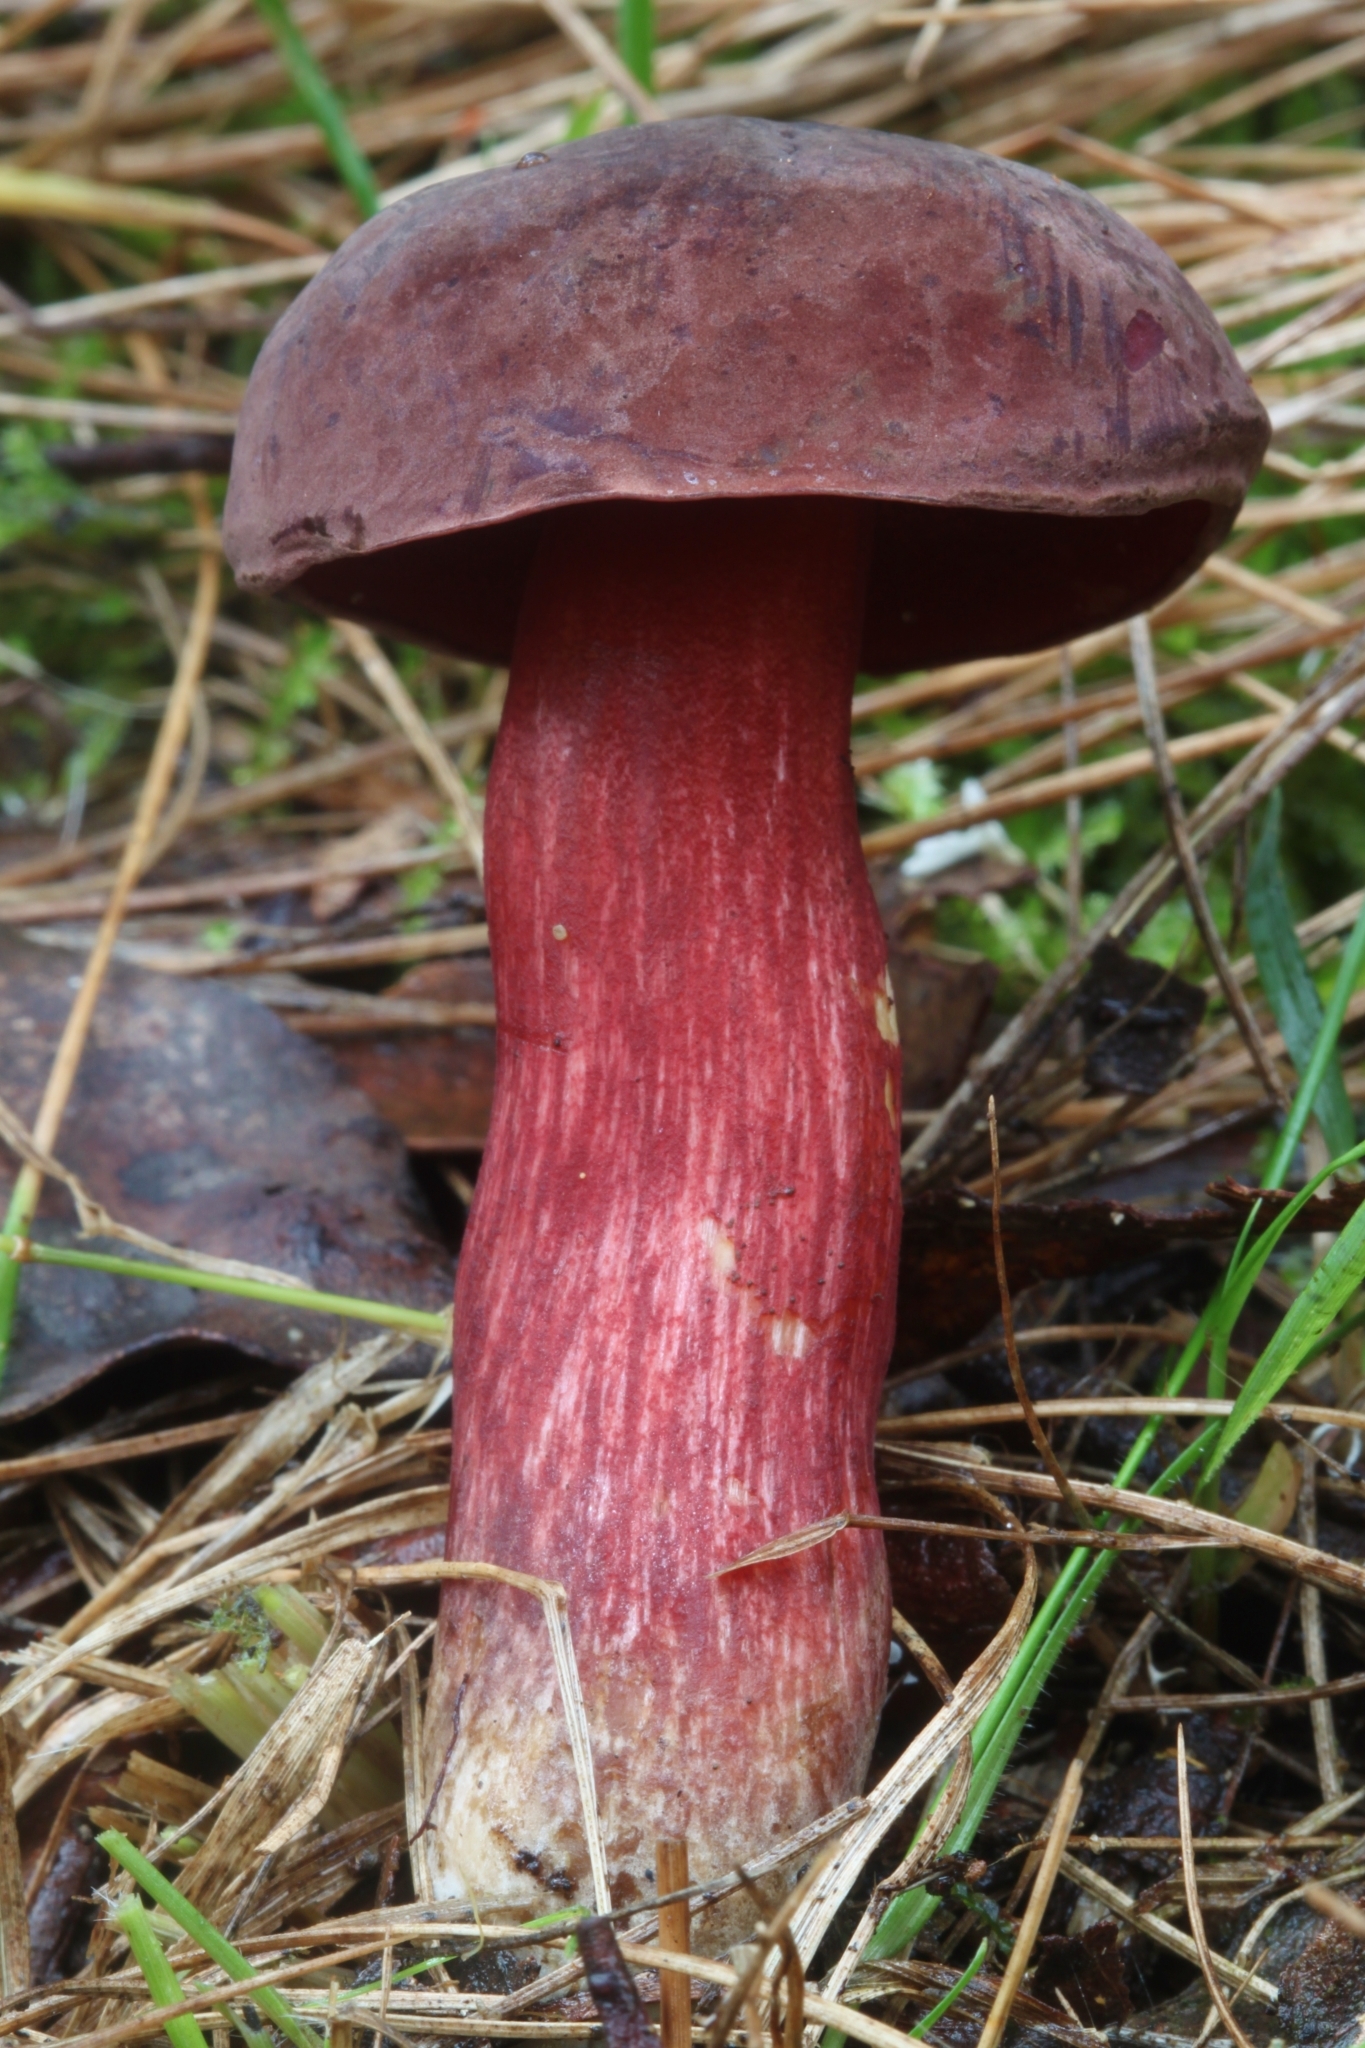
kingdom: Fungi
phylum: Basidiomycota
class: Agaricomycetes
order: Boletales
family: Boletaceae
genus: Boletus
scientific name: Boletus barragensis
